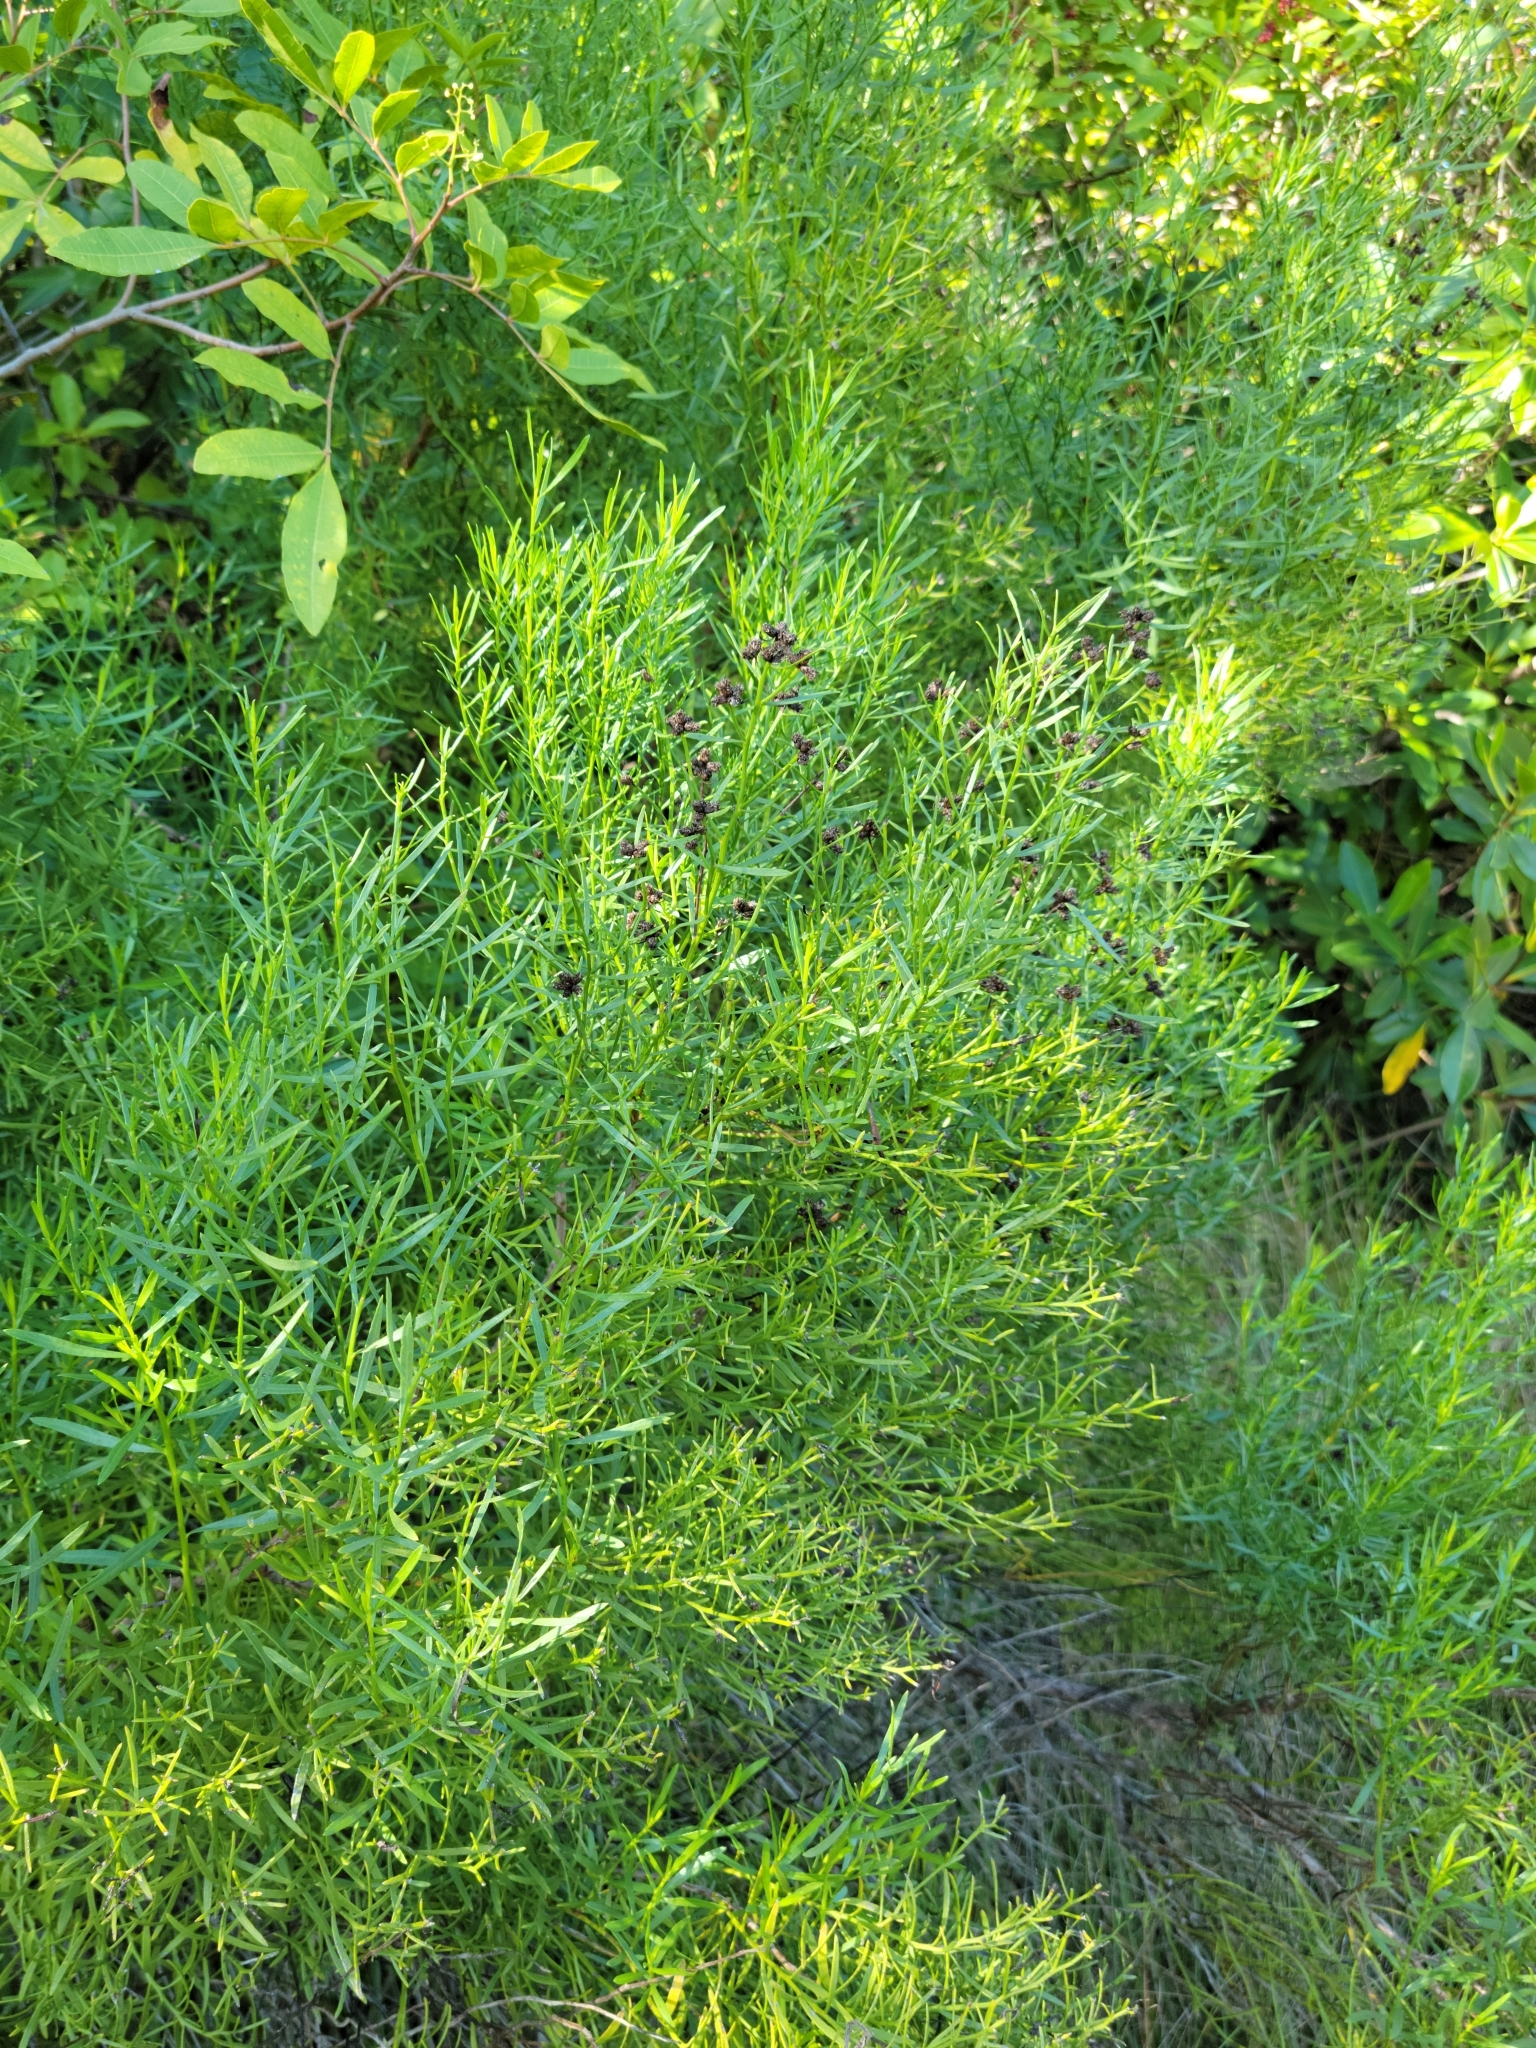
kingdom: Plantae
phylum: Tracheophyta
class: Magnoliopsida
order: Asterales
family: Asteraceae
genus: Baccharis
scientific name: Baccharis angustifolia
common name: Narrow-leaf baccharis
